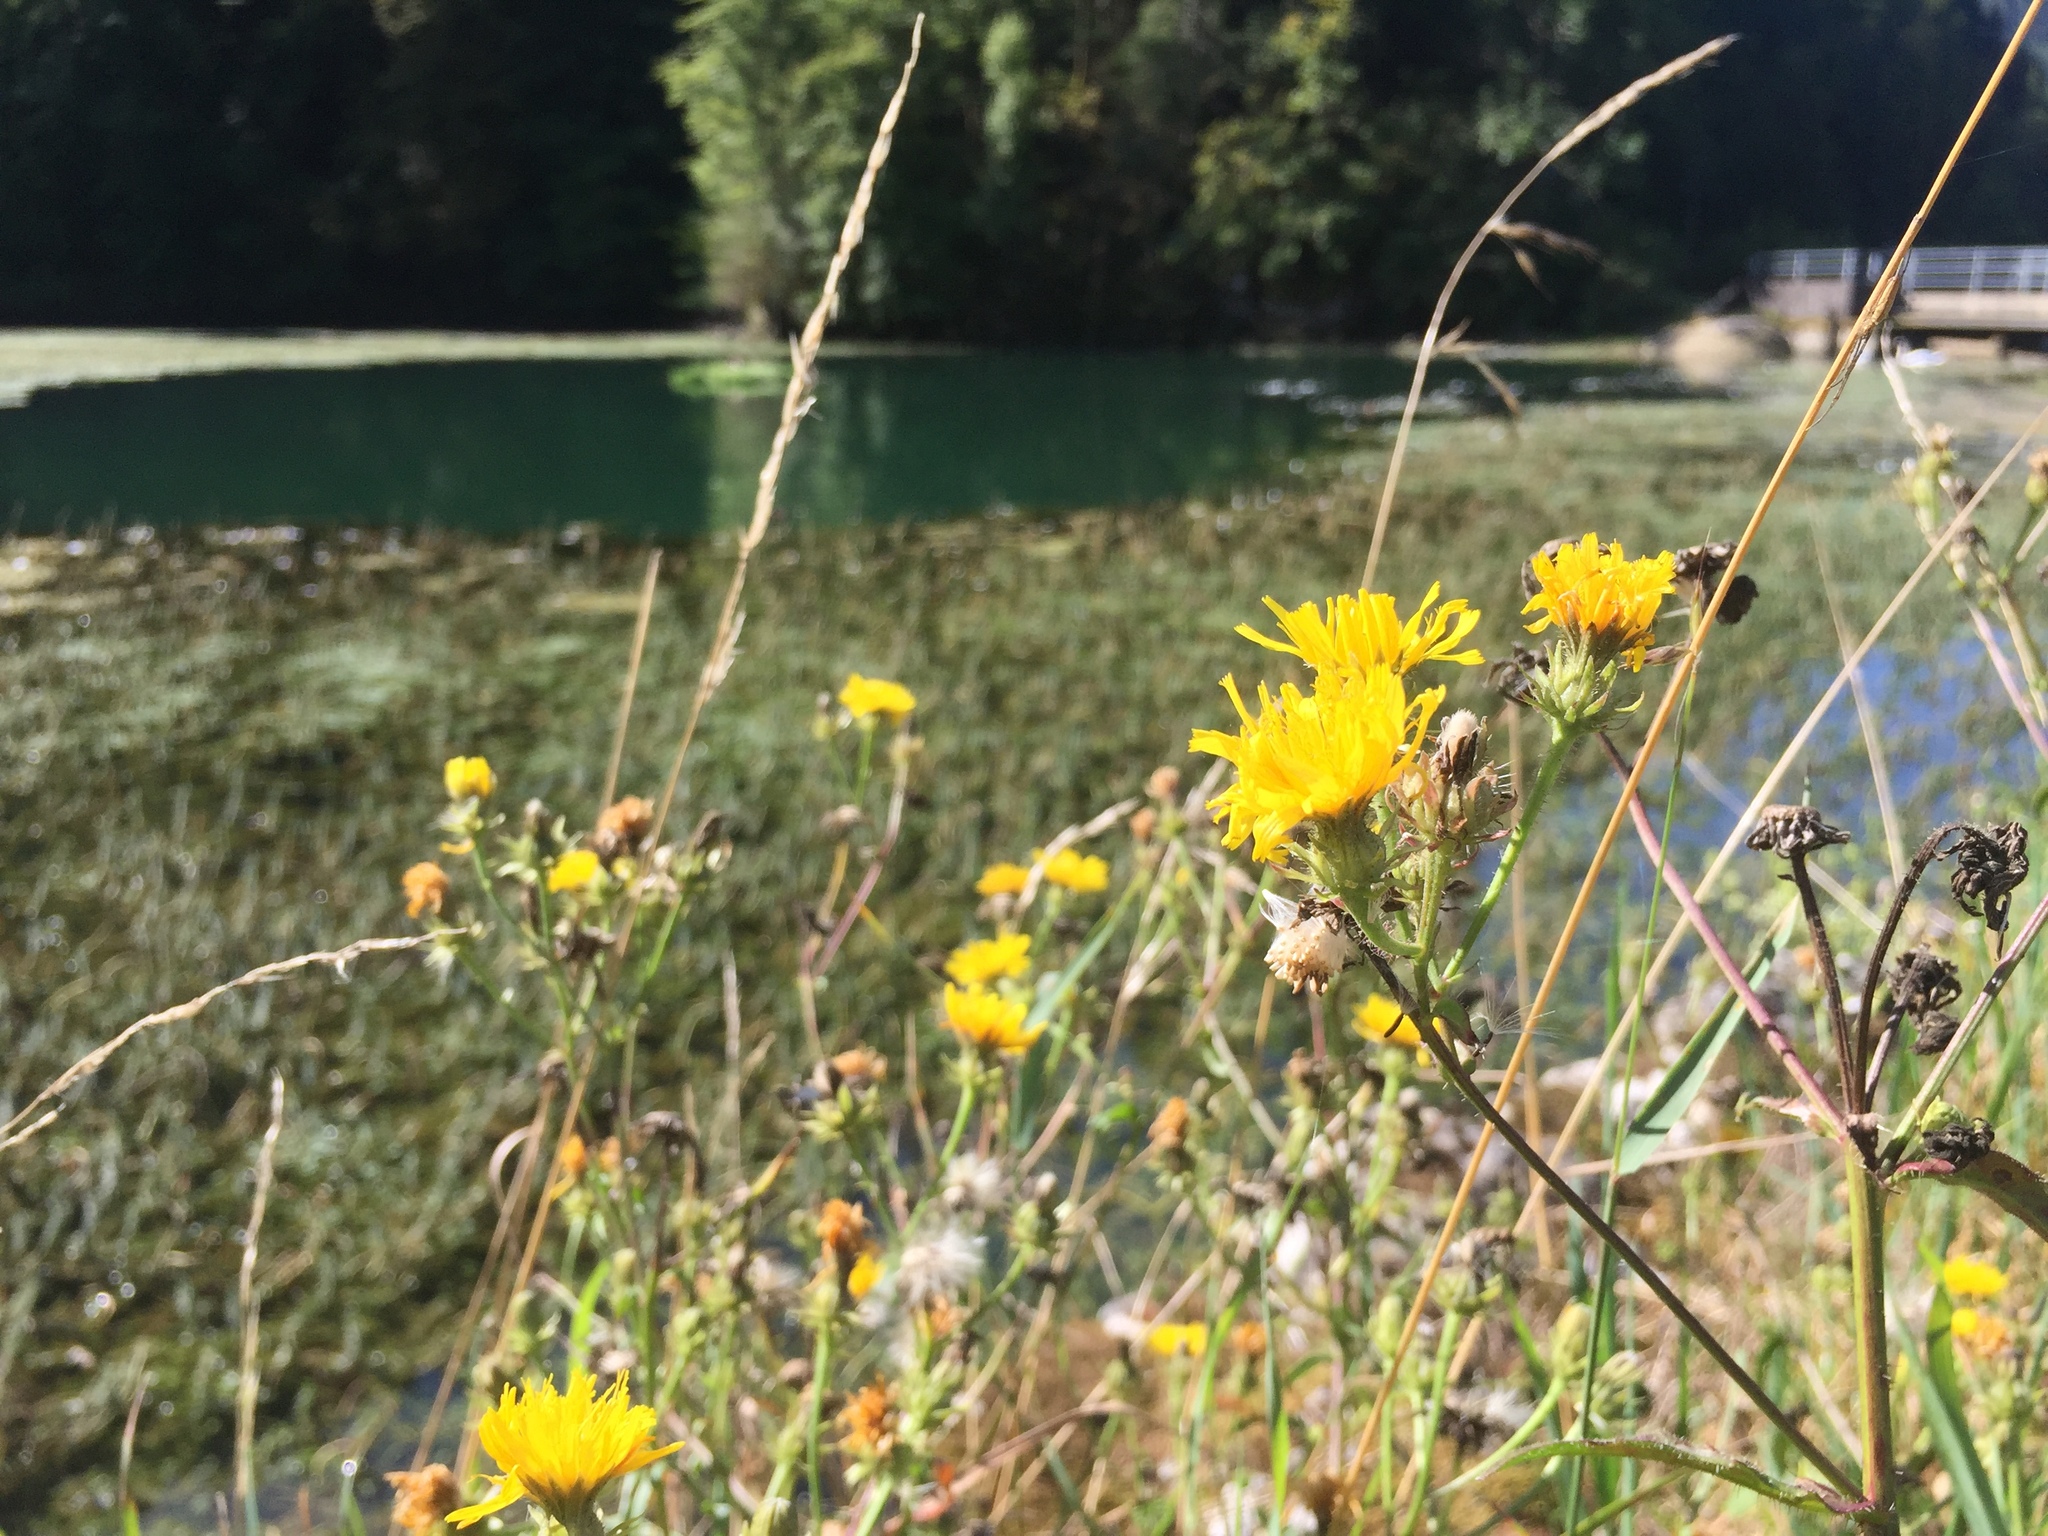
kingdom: Plantae
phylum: Tracheophyta
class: Magnoliopsida
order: Asterales
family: Asteraceae
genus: Picris
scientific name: Picris hieracioides
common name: Hawkweed oxtongue
